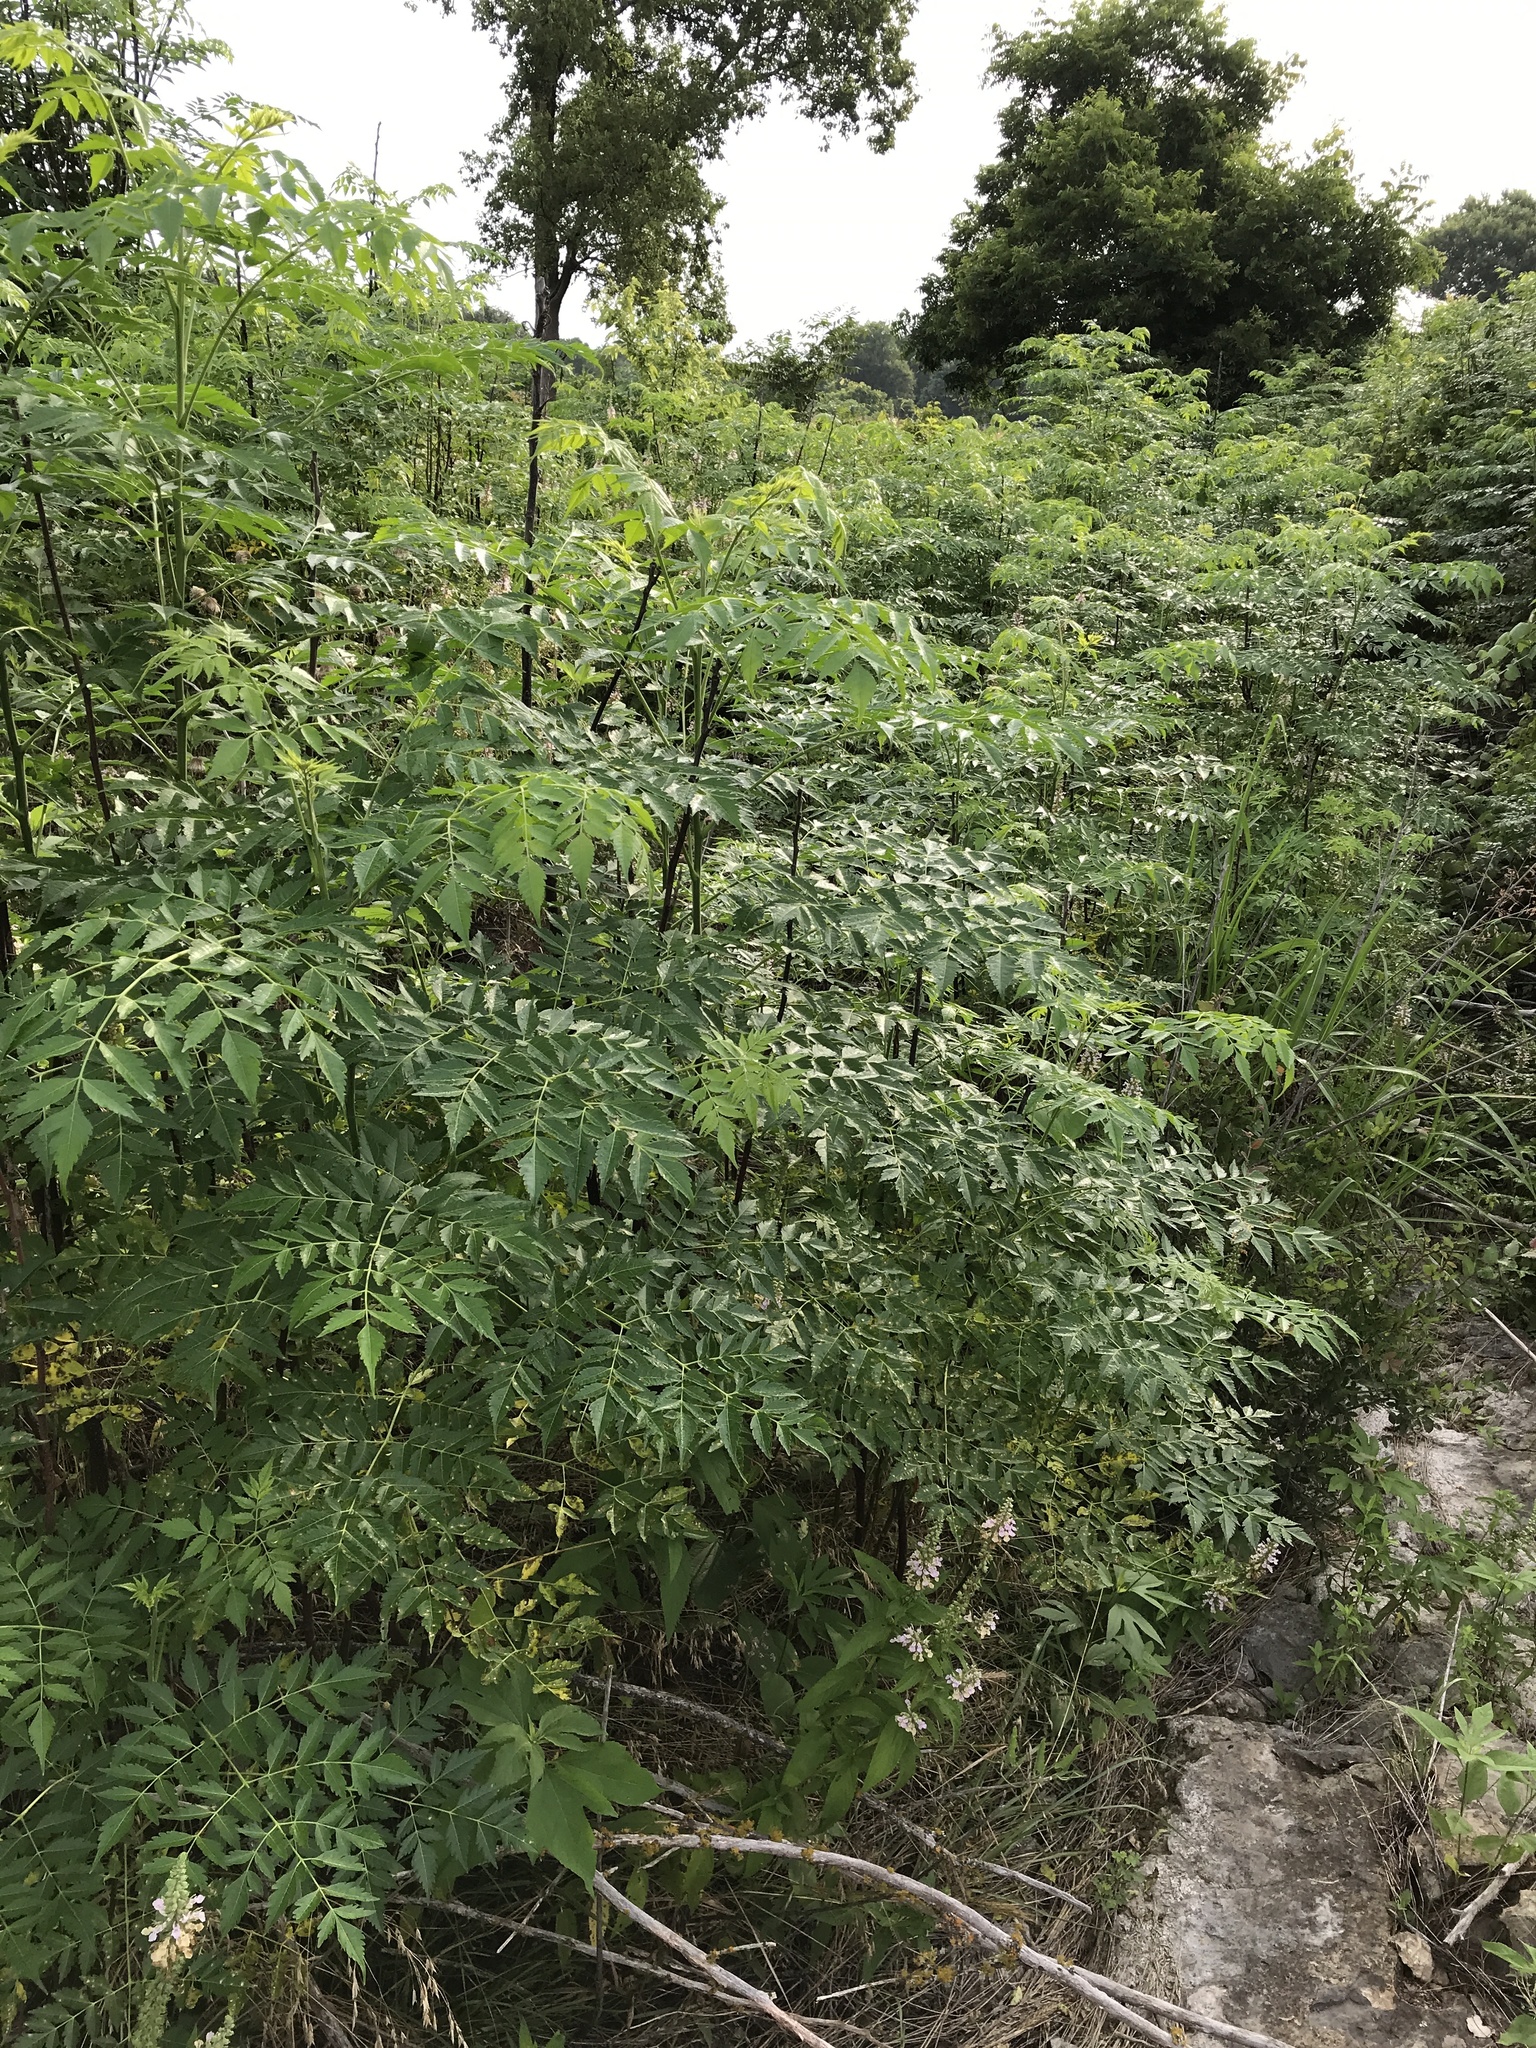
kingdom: Plantae
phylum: Tracheophyta
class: Magnoliopsida
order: Sapindales
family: Meliaceae
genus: Melia
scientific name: Melia azedarach
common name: Chinaberrytree
